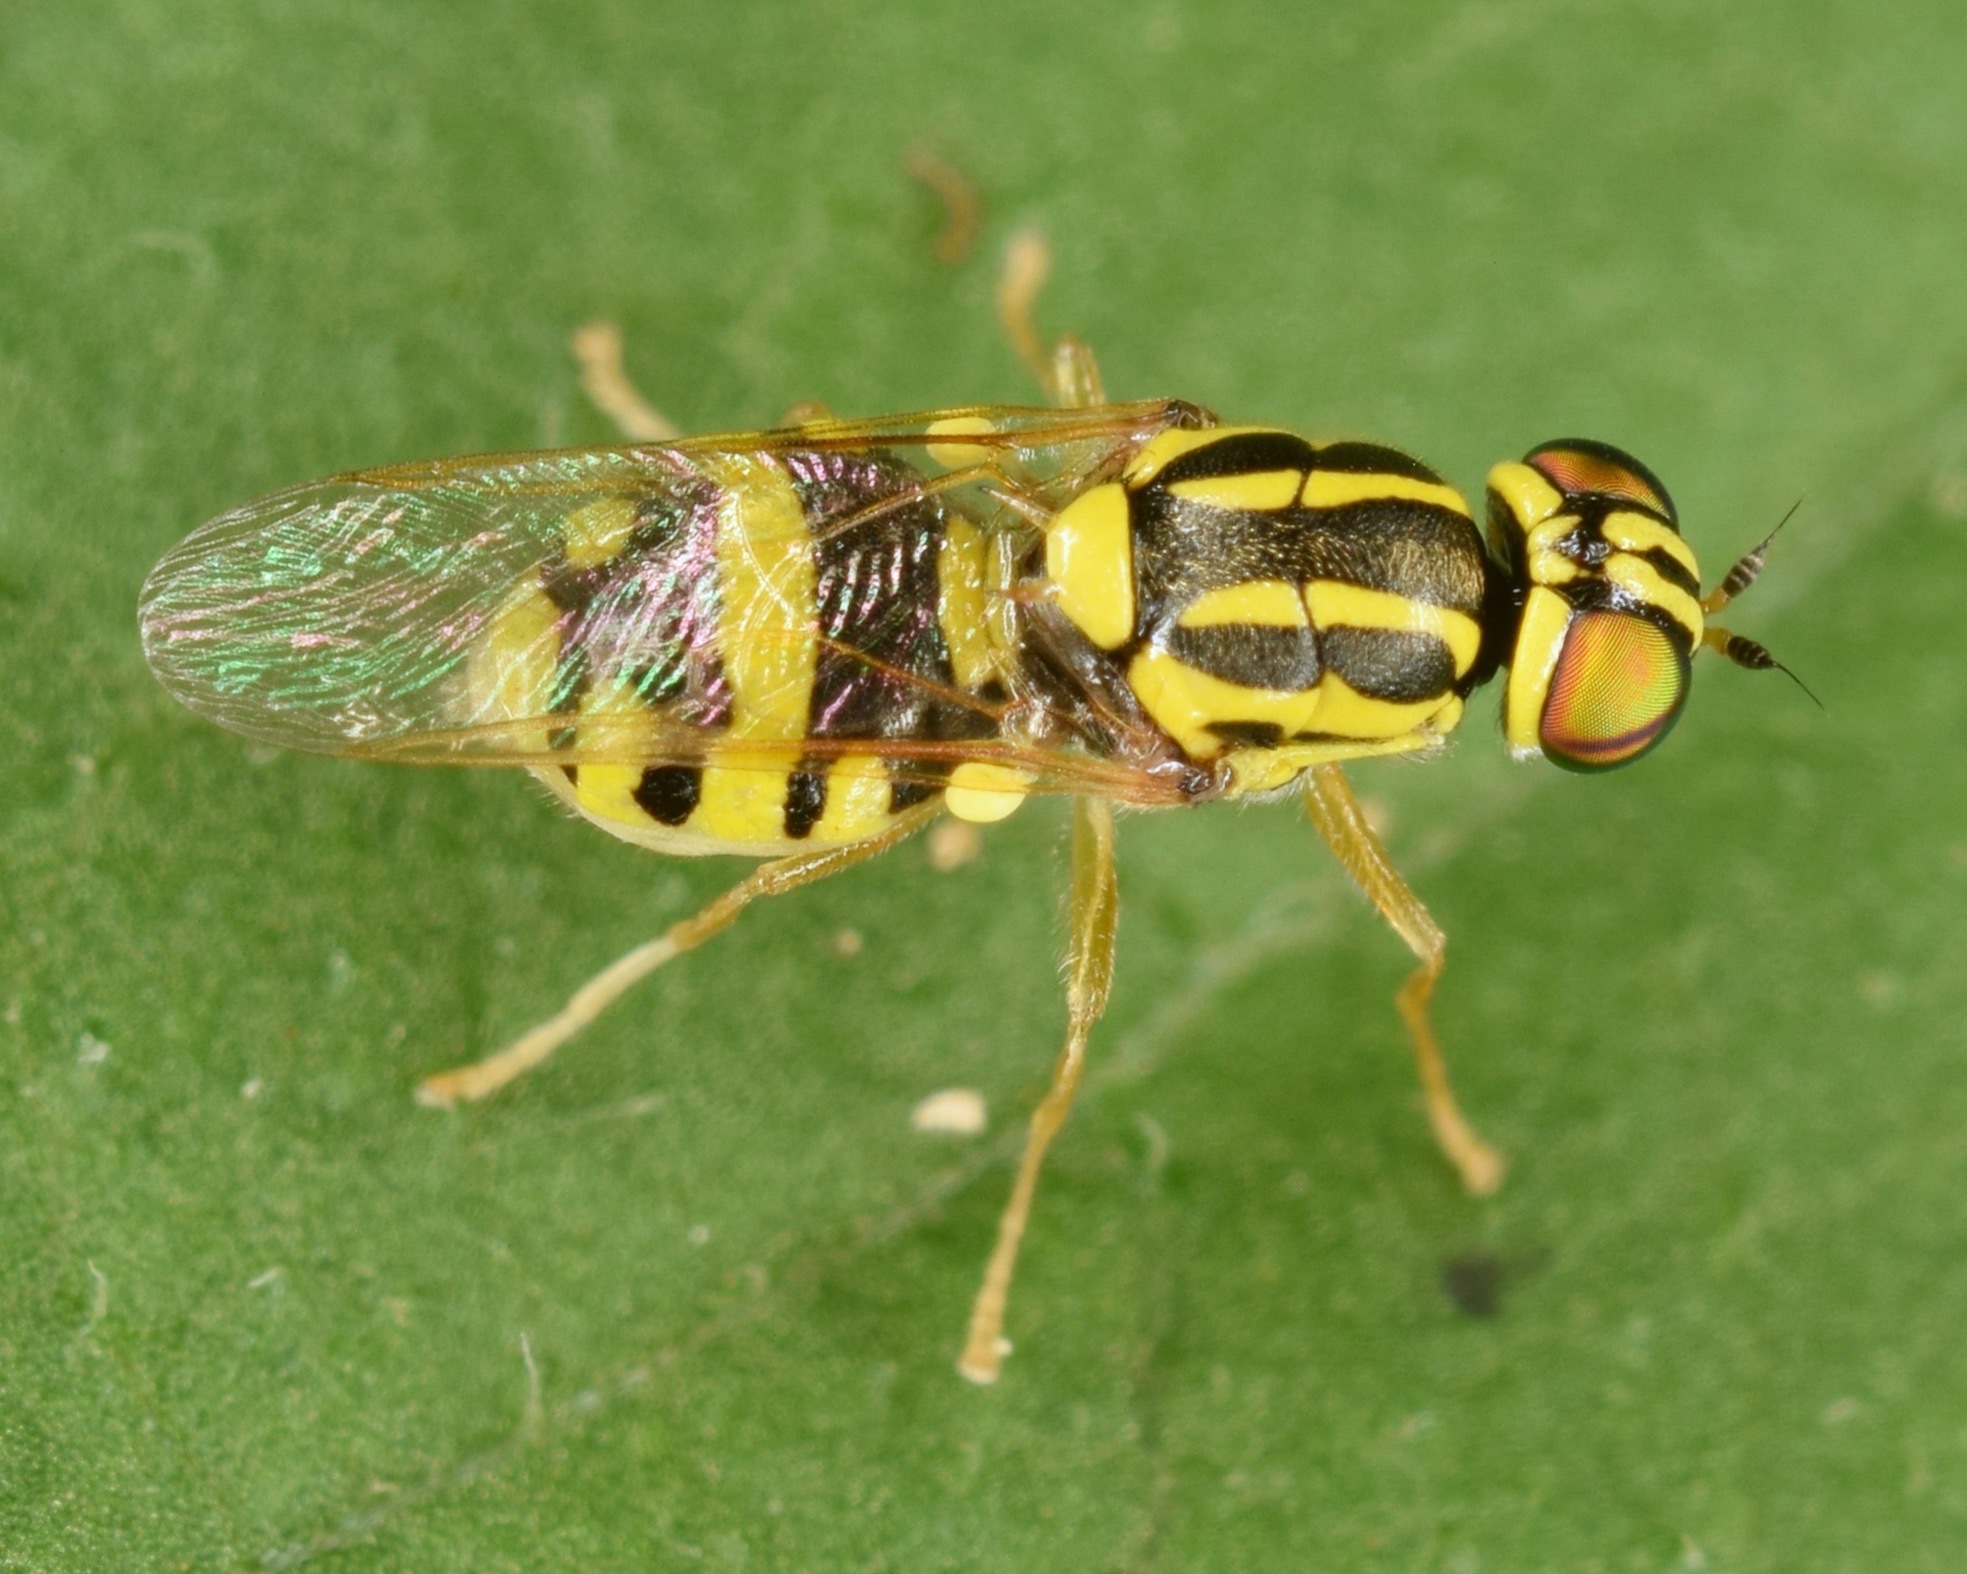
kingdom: Animalia
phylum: Arthropoda
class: Insecta
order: Diptera
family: Stratiomyidae
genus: Oxycera
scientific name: Oxycera variegata
